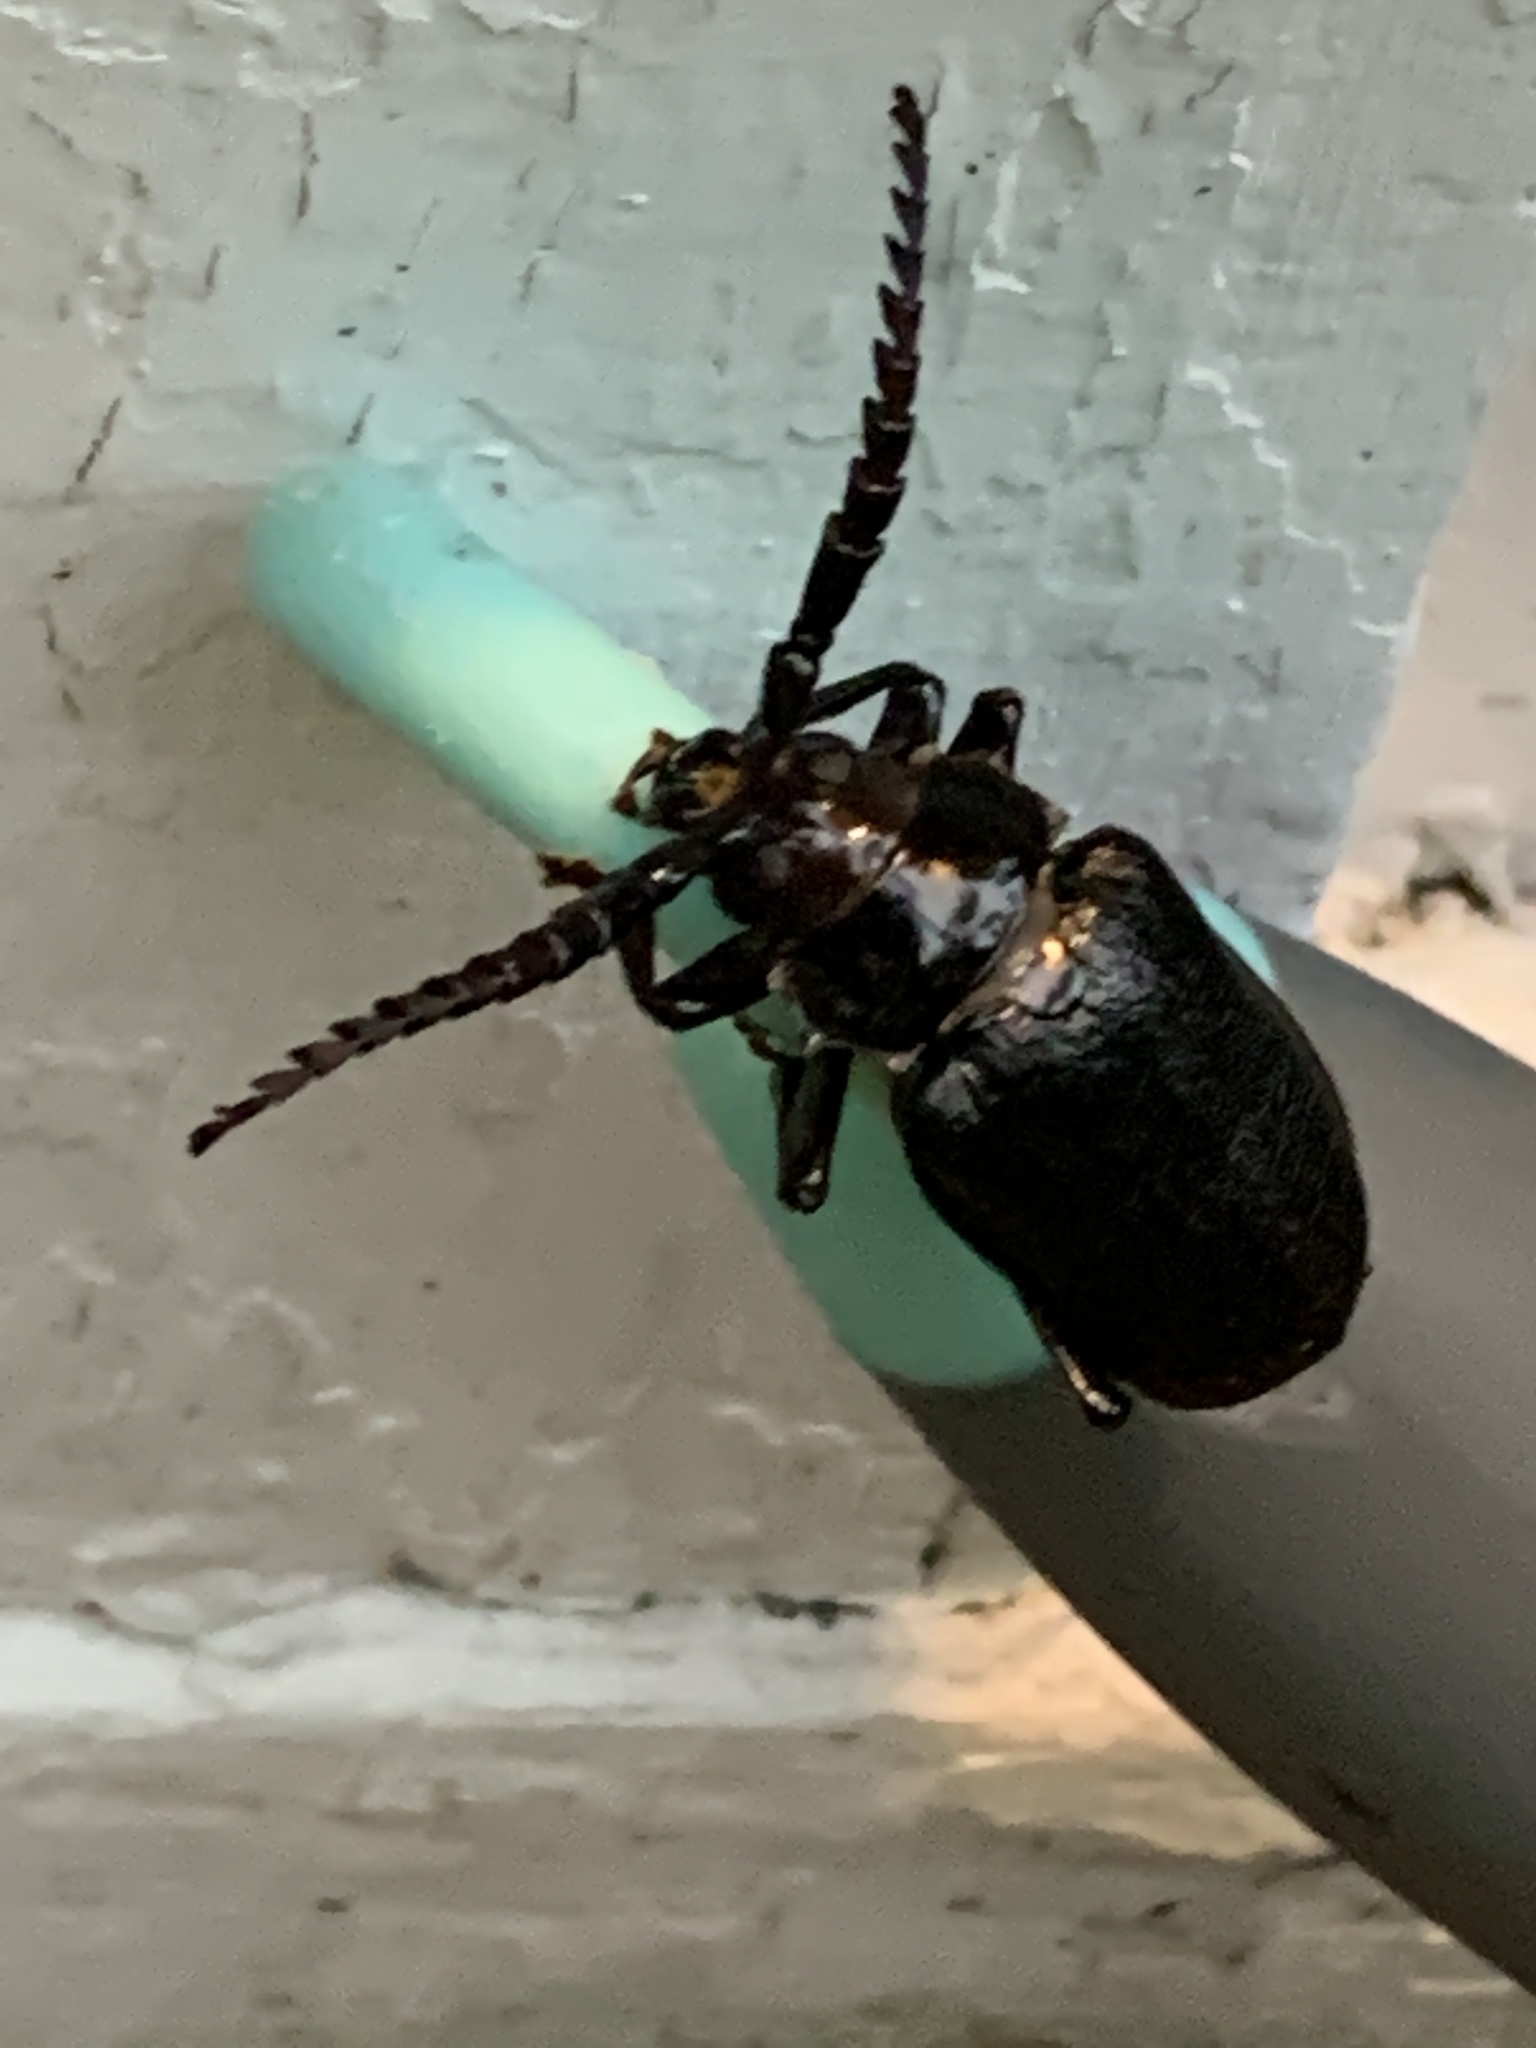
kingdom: Animalia
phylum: Arthropoda
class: Insecta
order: Coleoptera
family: Cerambycidae
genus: Prionus
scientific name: Prionus laticollis
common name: Broad necked prionus
